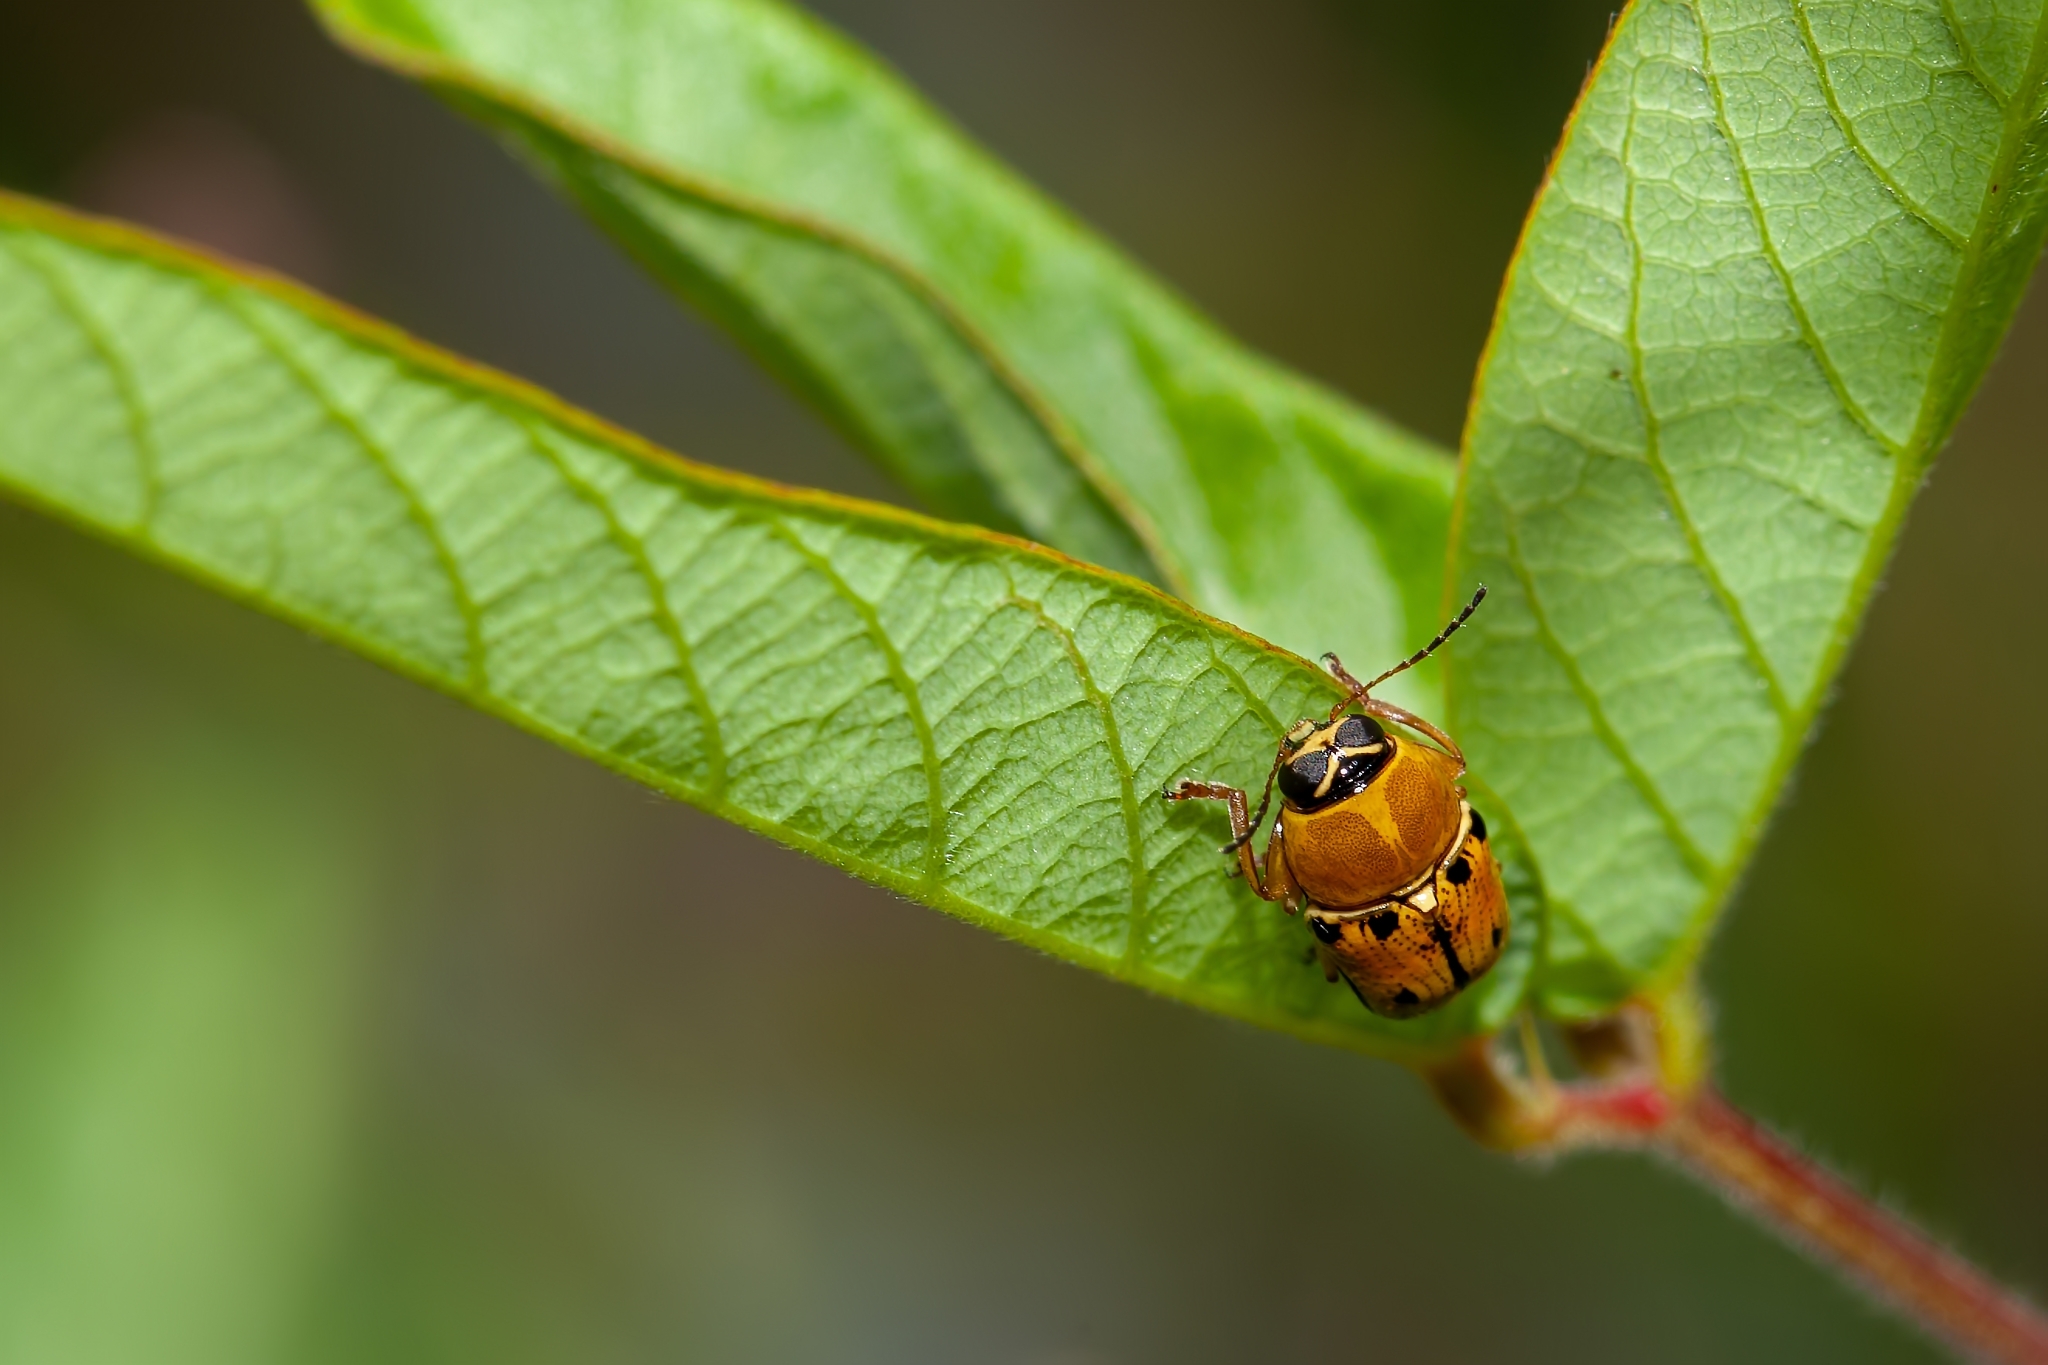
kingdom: Animalia
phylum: Arthropoda
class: Insecta
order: Coleoptera
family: Chrysomelidae
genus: Griburius
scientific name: Griburius larvatus
